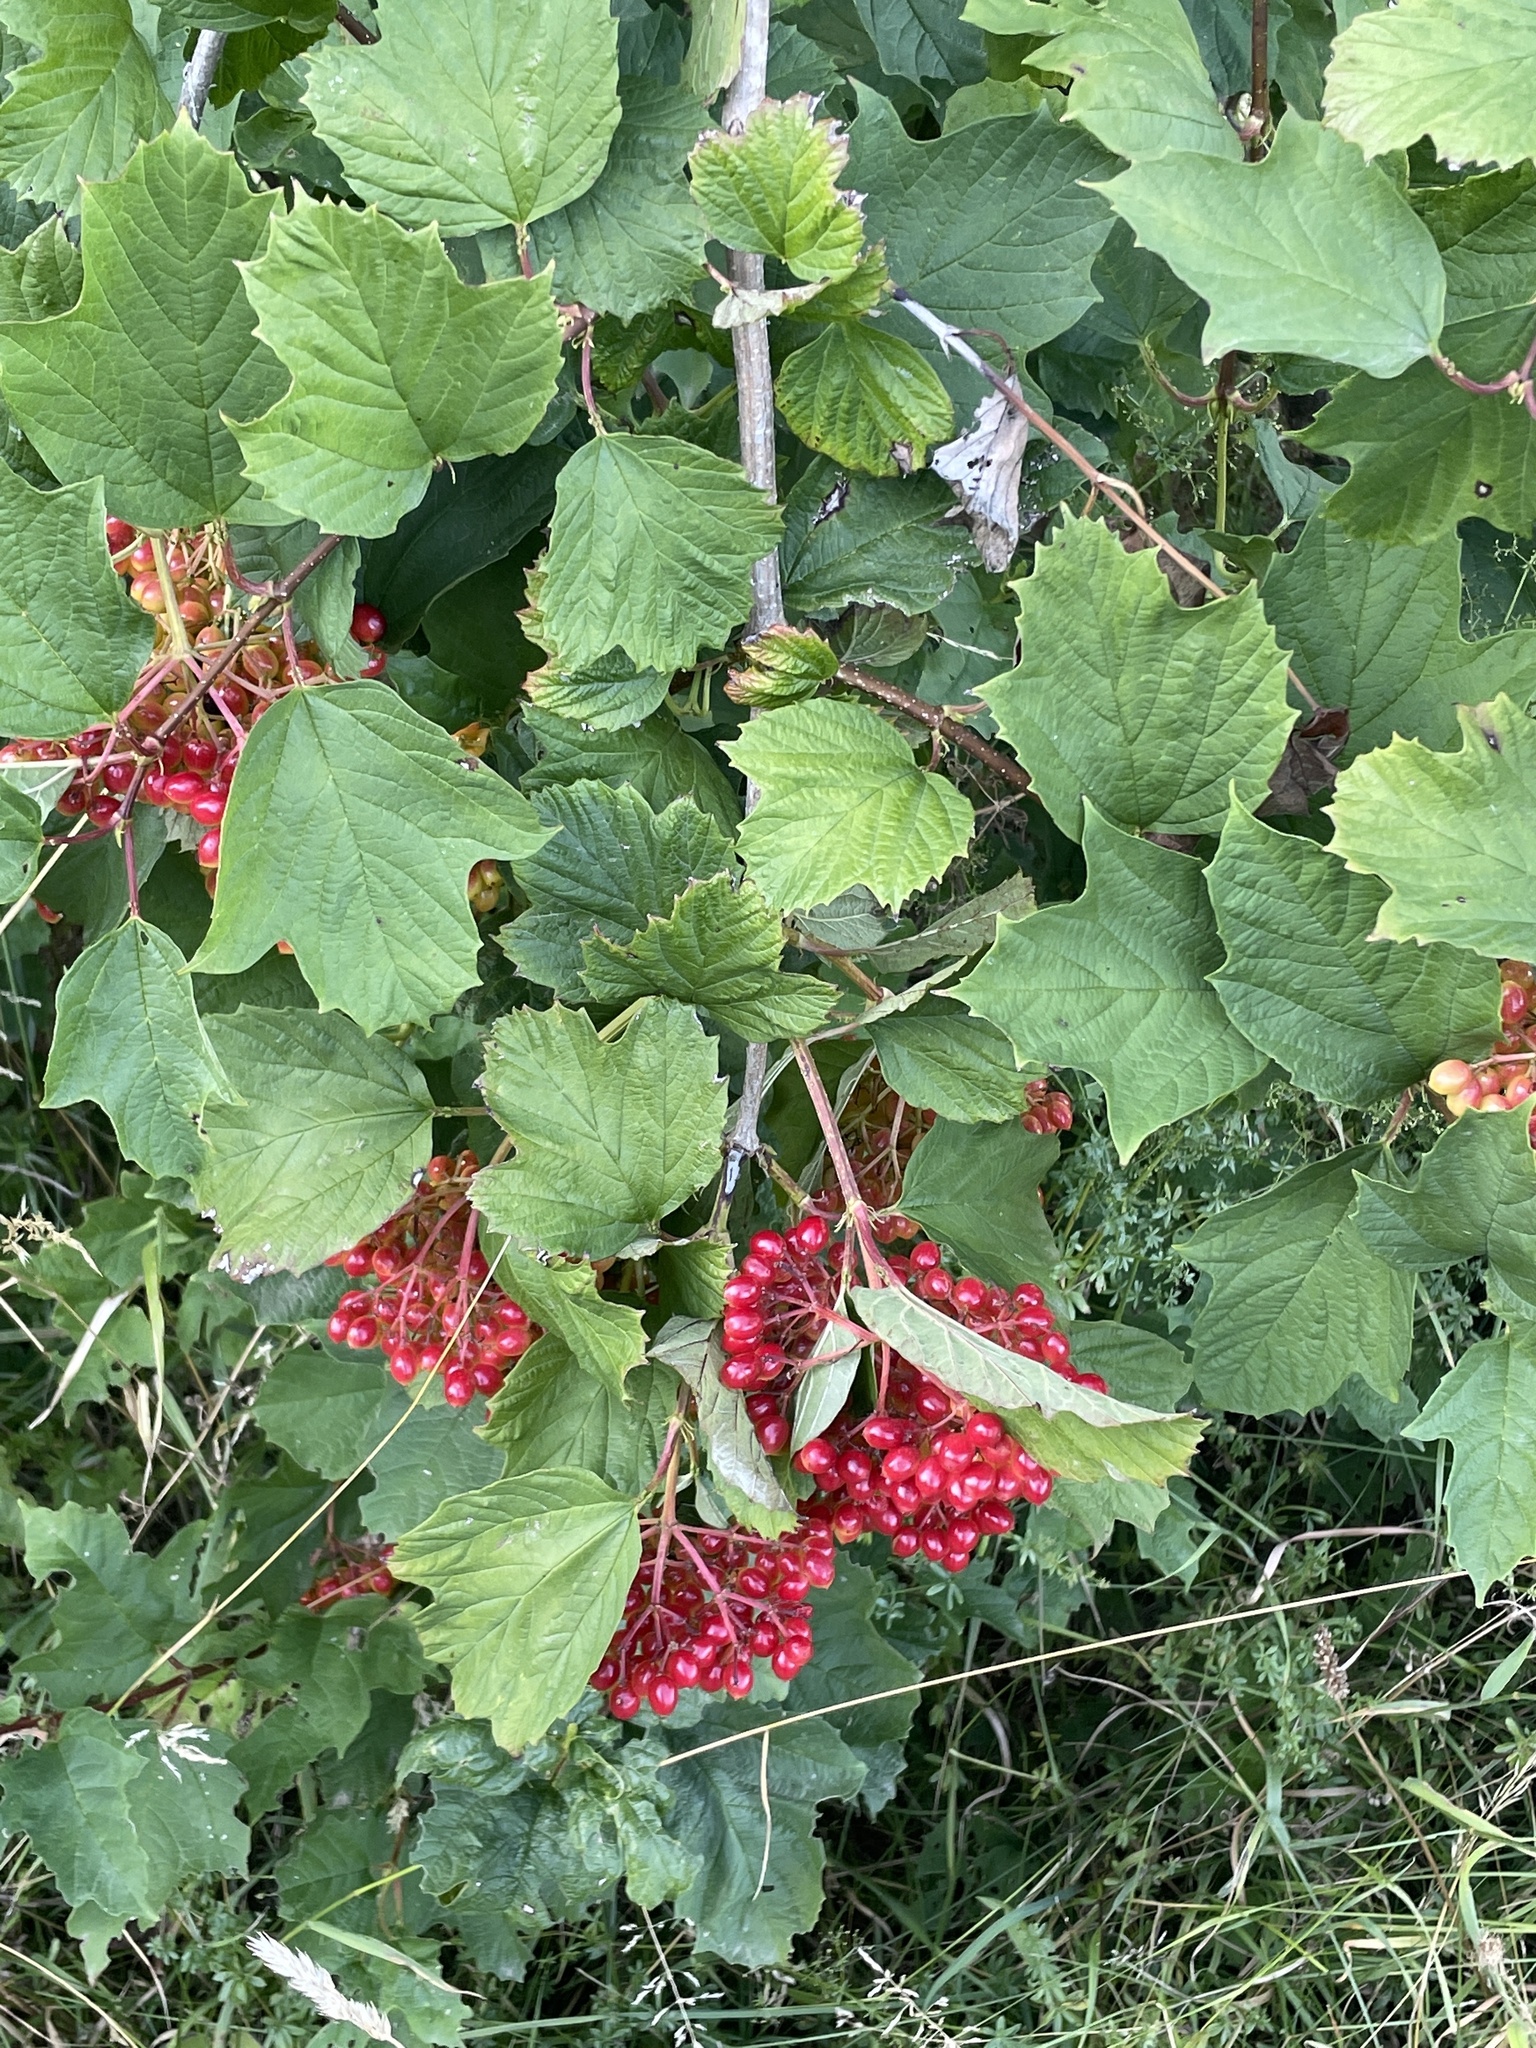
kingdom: Plantae
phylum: Tracheophyta
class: Magnoliopsida
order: Dipsacales
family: Viburnaceae
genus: Viburnum
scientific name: Viburnum opulus
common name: Guelder-rose
